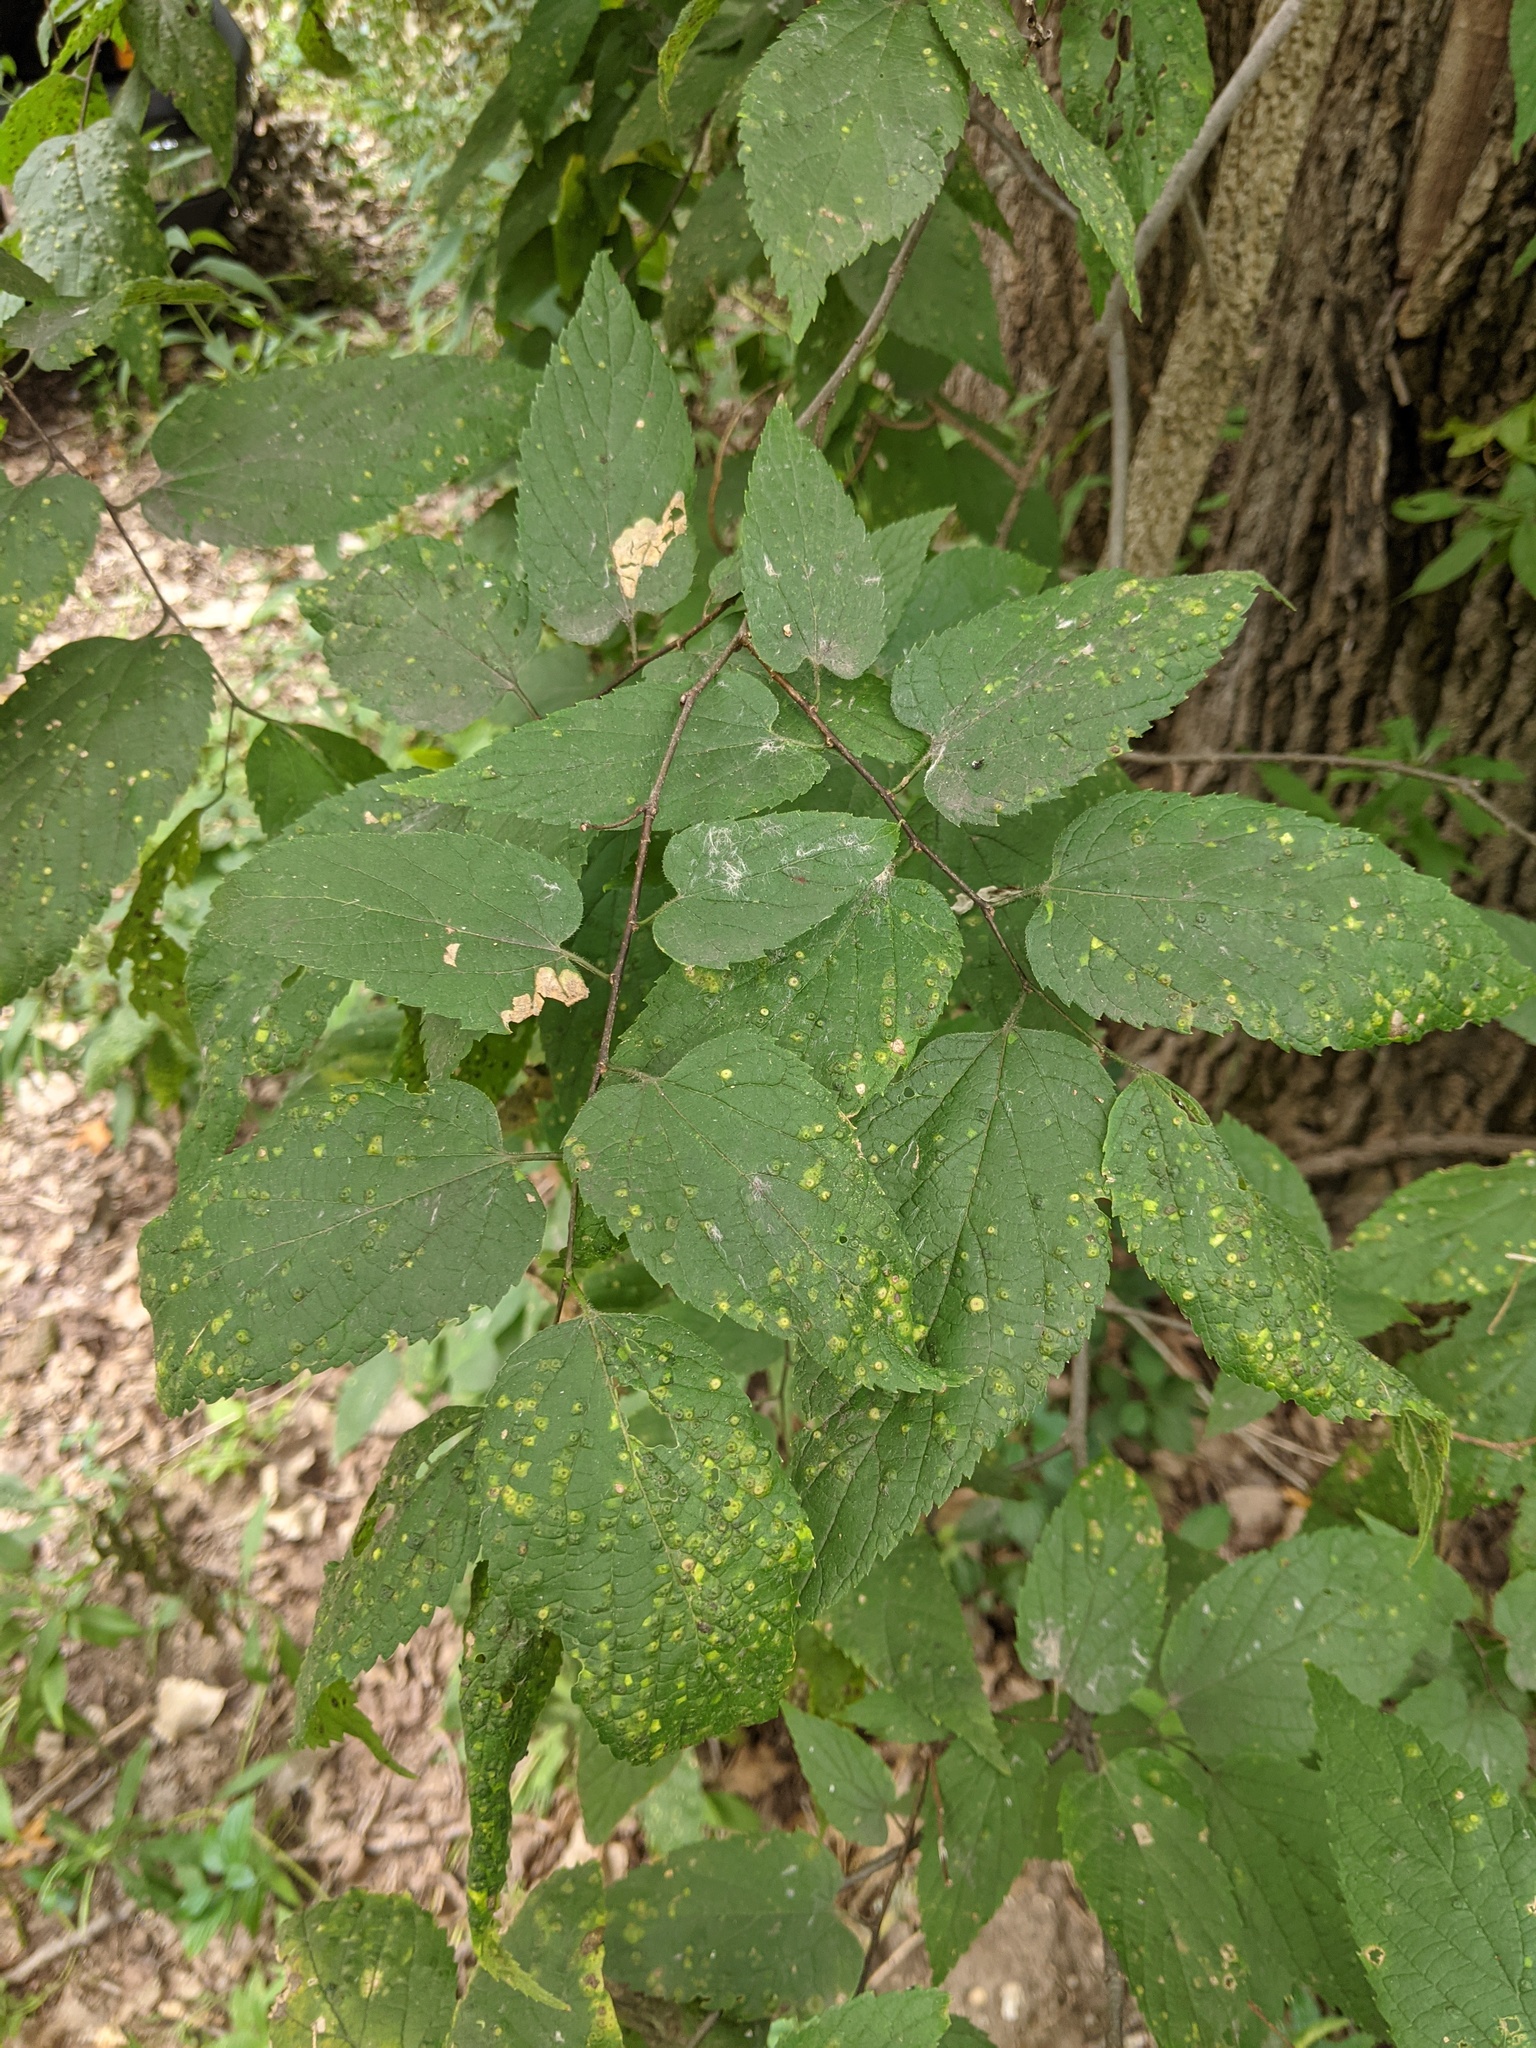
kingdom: Plantae
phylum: Tracheophyta
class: Magnoliopsida
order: Rosales
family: Cannabaceae
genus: Celtis
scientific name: Celtis occidentalis
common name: Common hackberry
